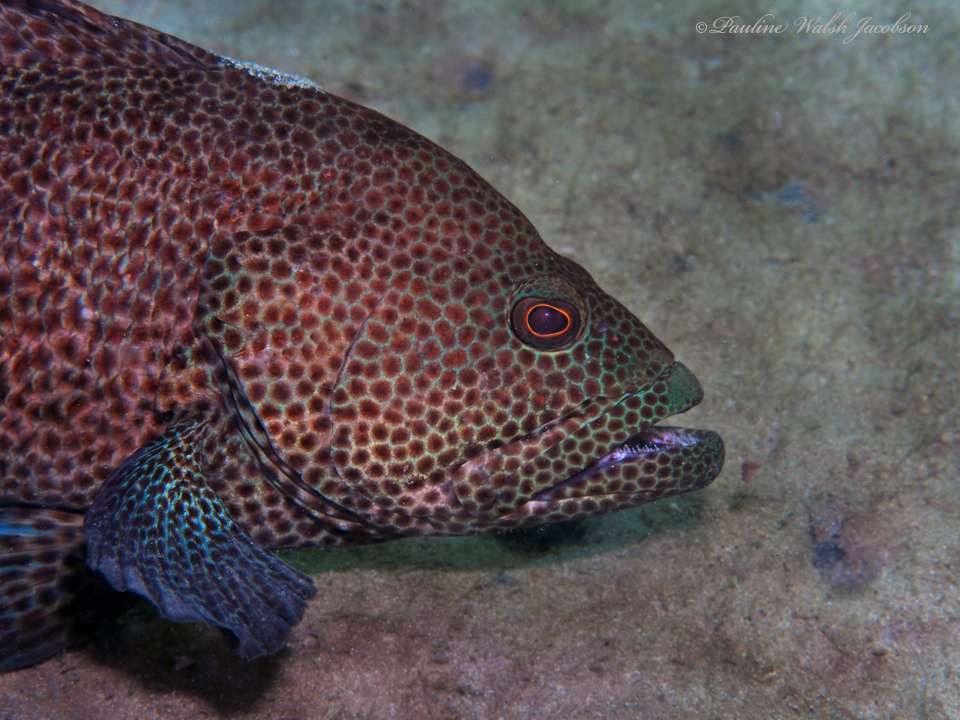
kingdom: Animalia
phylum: Chordata
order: Perciformes
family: Serranidae
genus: Cephalopholis
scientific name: Cephalopholis cruentata
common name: Graysby
